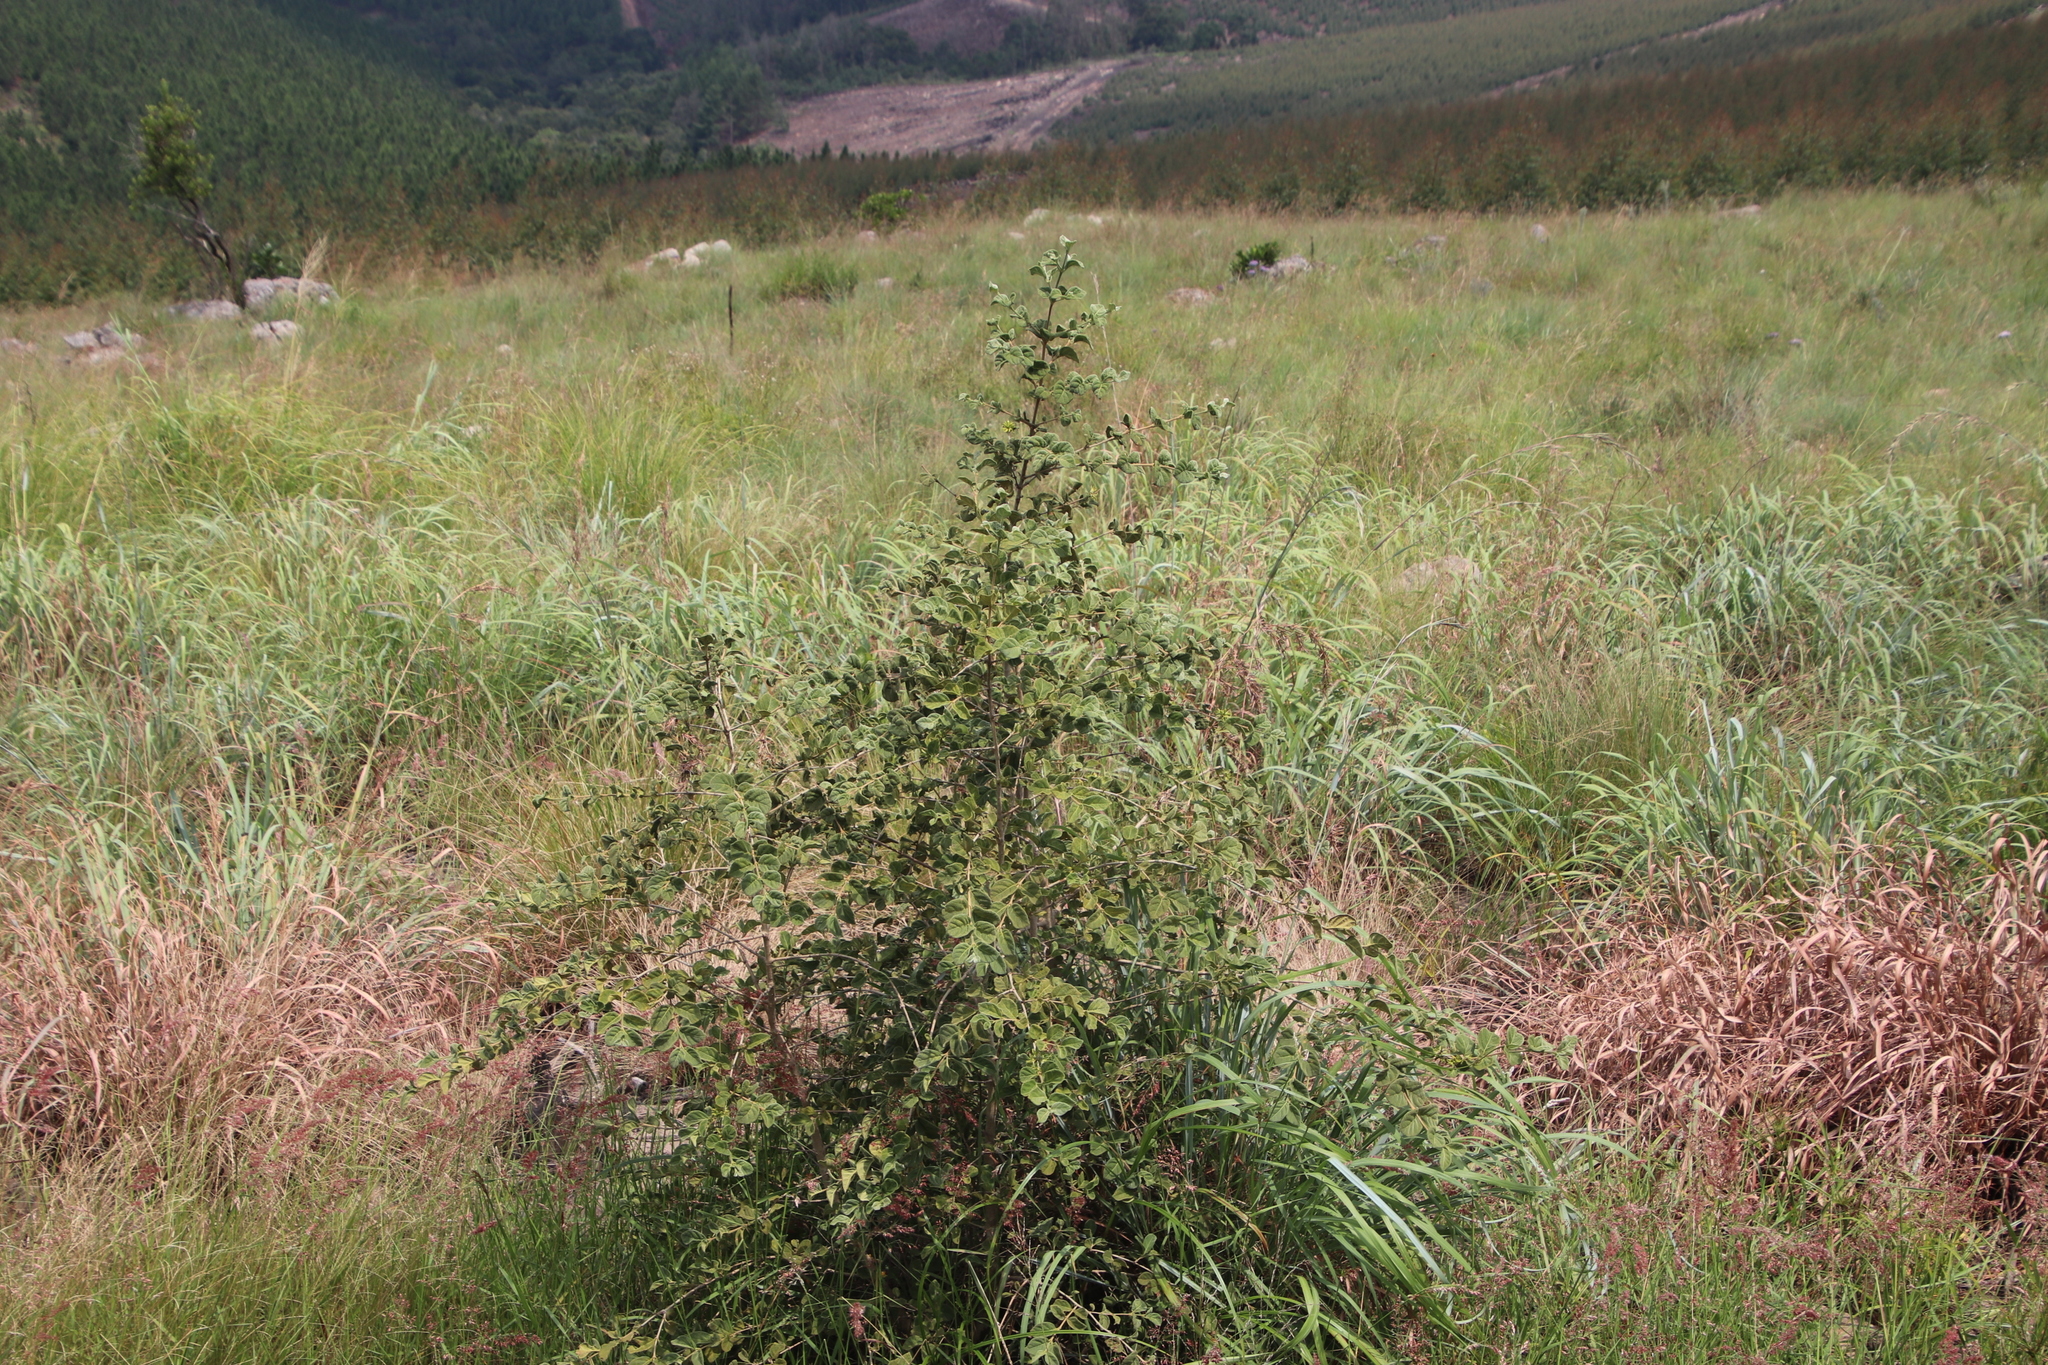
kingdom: Plantae
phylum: Tracheophyta
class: Magnoliopsida
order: Gentianales
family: Rubiaceae
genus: Vangueria
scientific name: Vangueria macrocalyx
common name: Crowned-medlar
